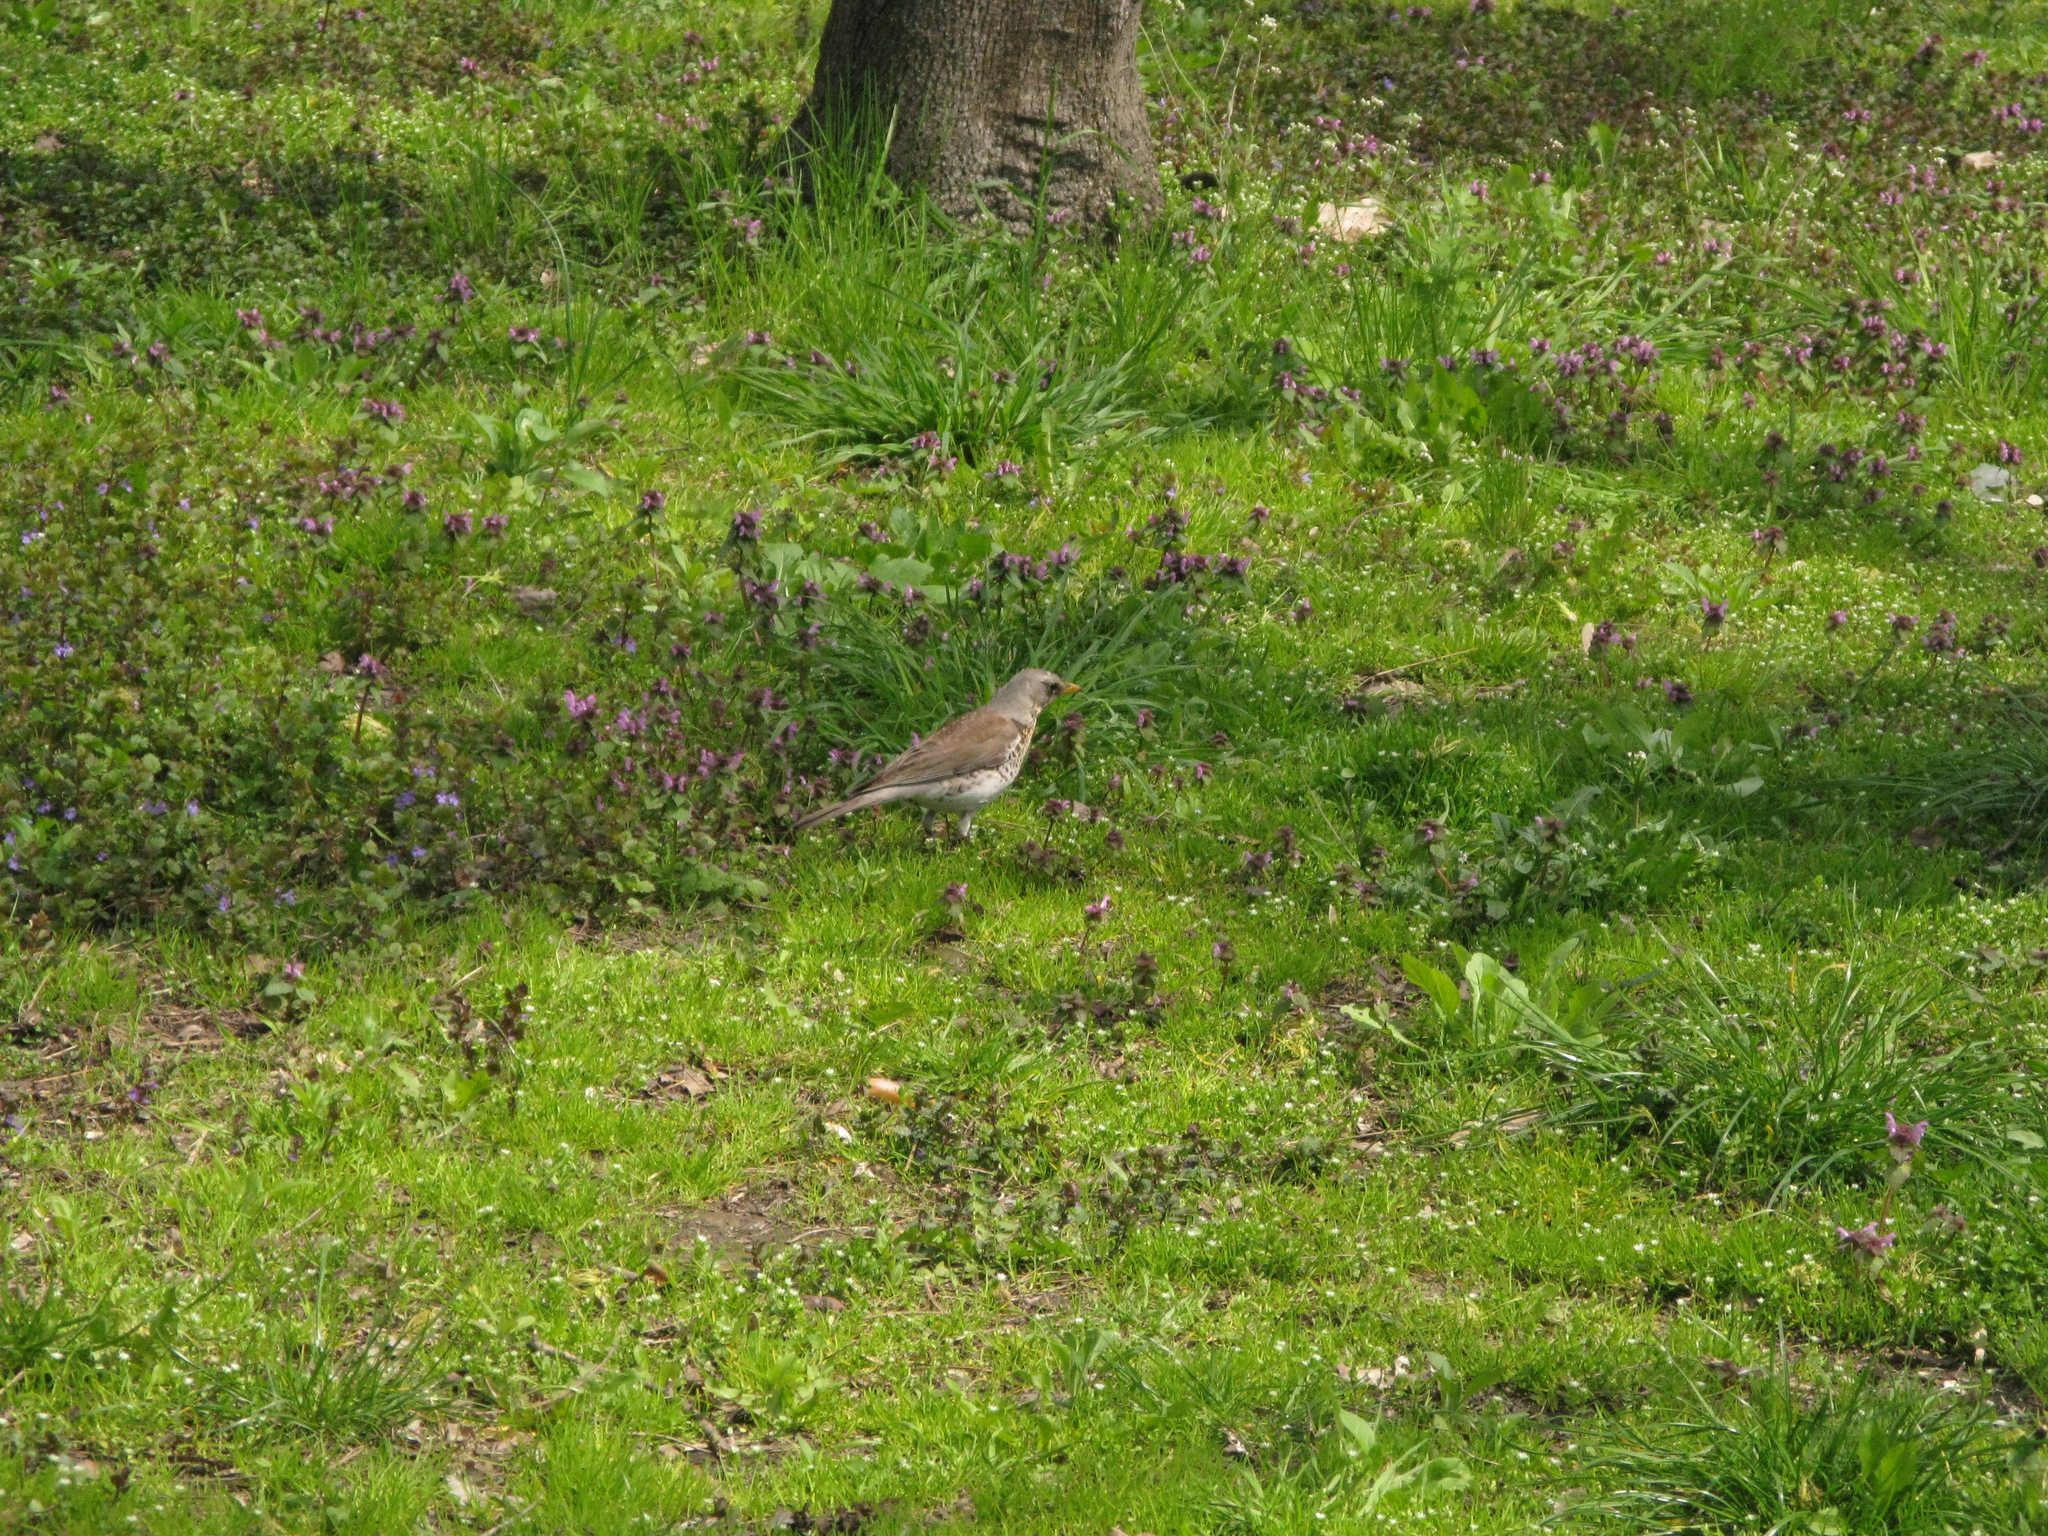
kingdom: Animalia
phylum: Chordata
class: Aves
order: Passeriformes
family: Turdidae
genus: Turdus
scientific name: Turdus pilaris
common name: Fieldfare
